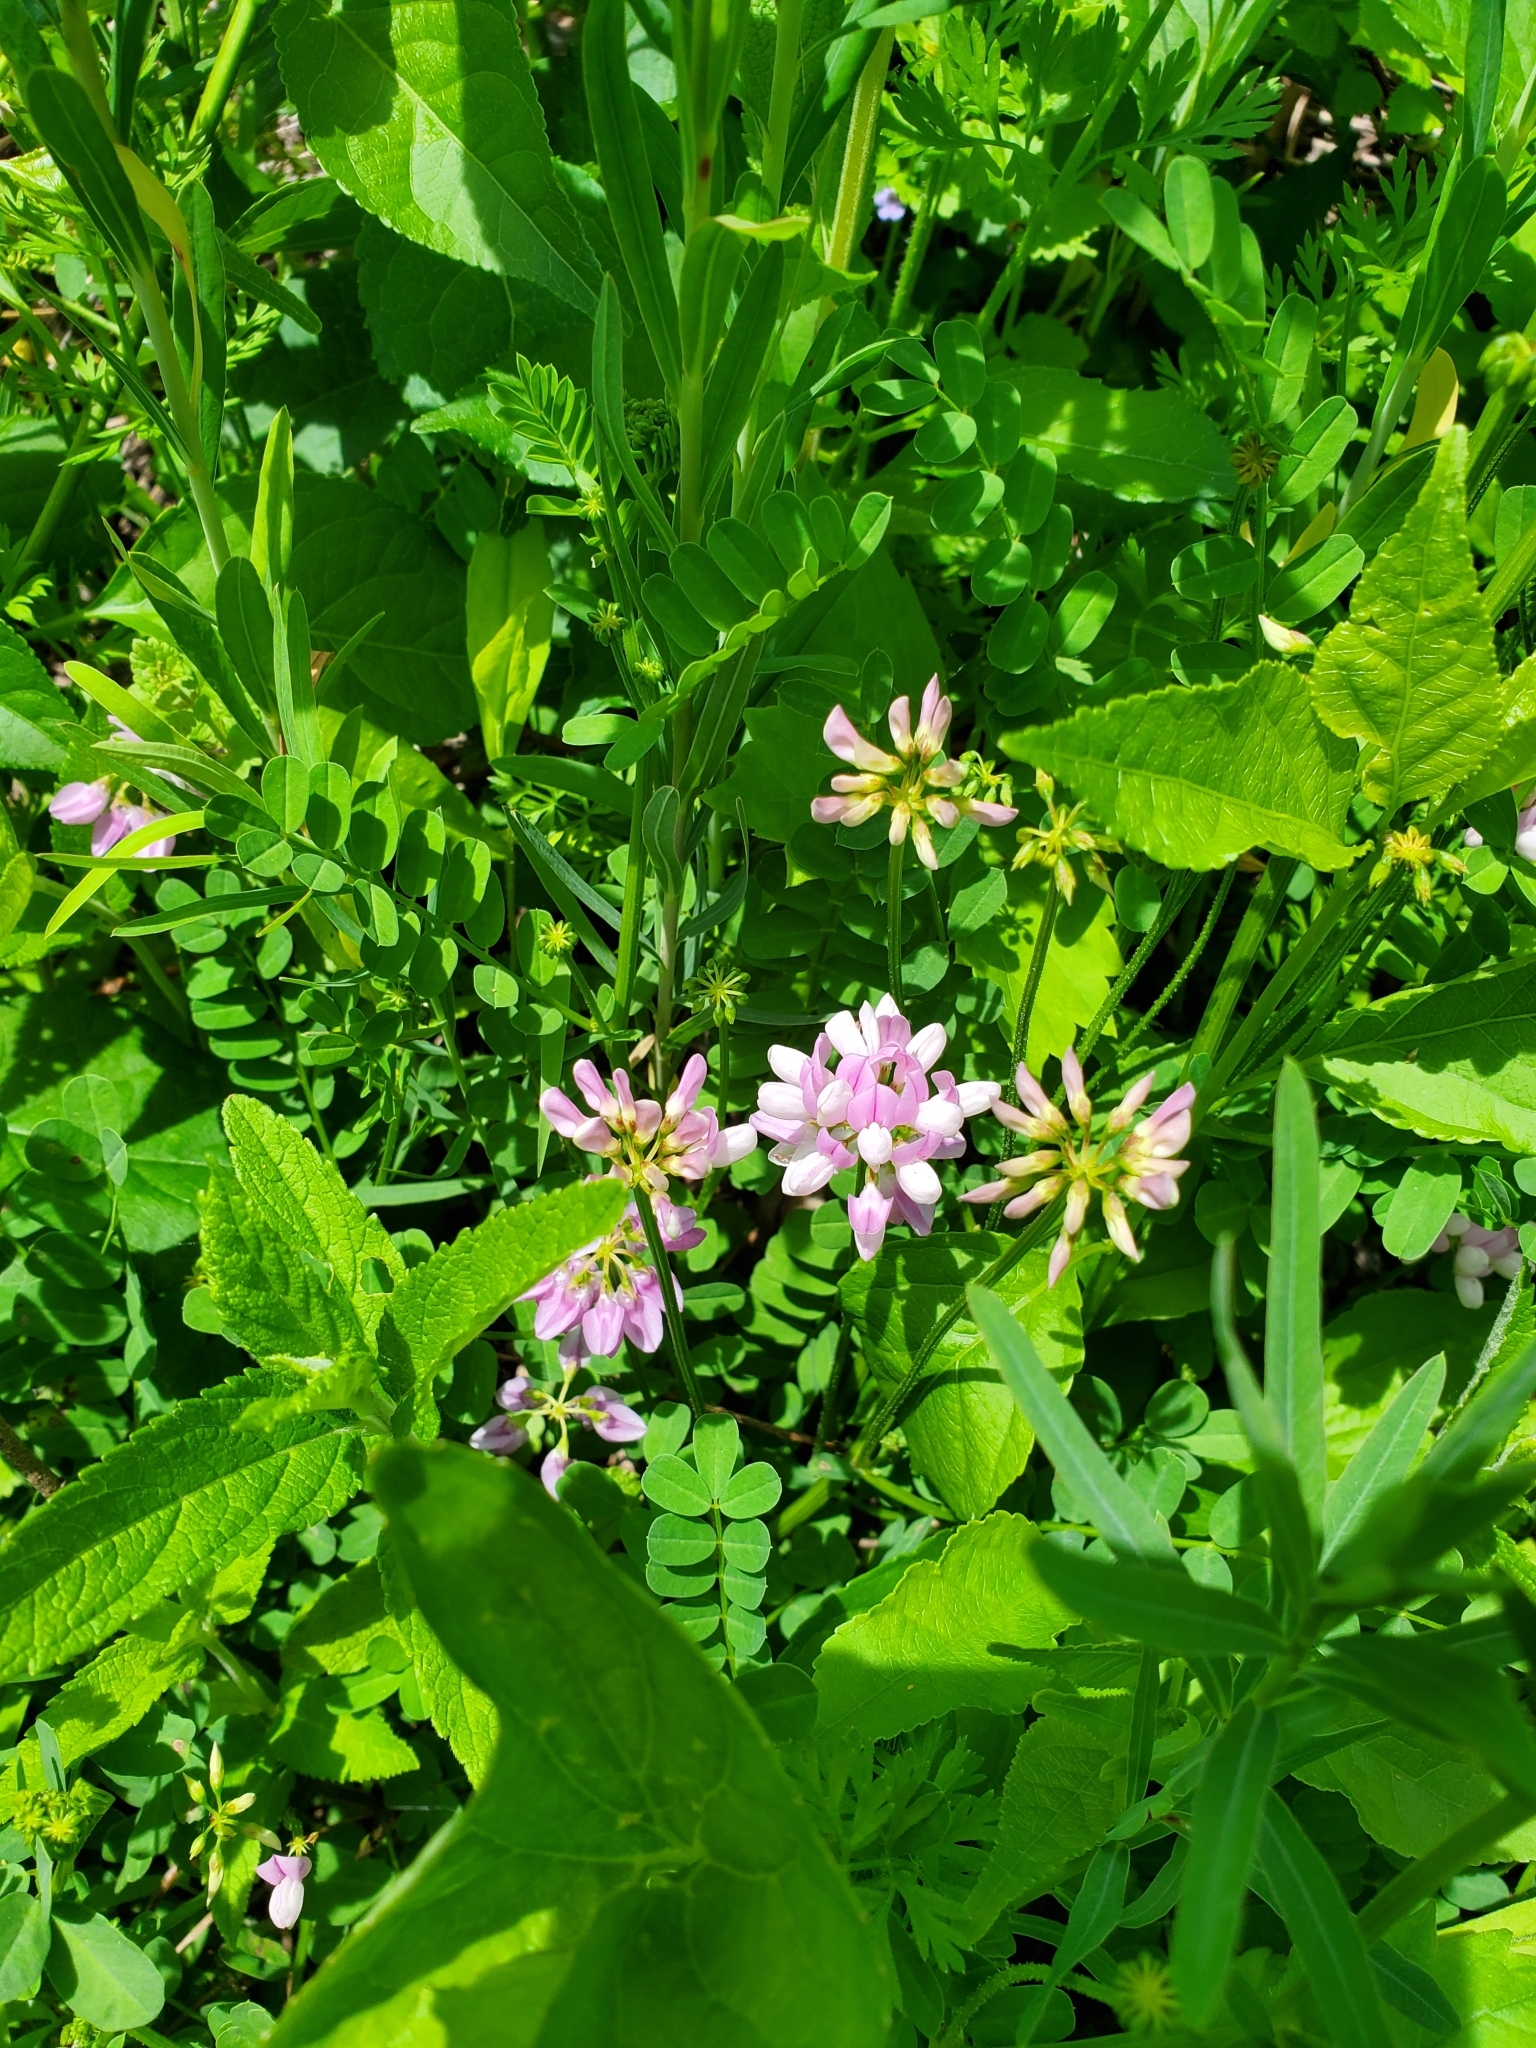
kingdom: Plantae
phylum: Tracheophyta
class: Magnoliopsida
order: Fabales
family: Fabaceae
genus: Coronilla
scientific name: Coronilla varia
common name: Crownvetch
